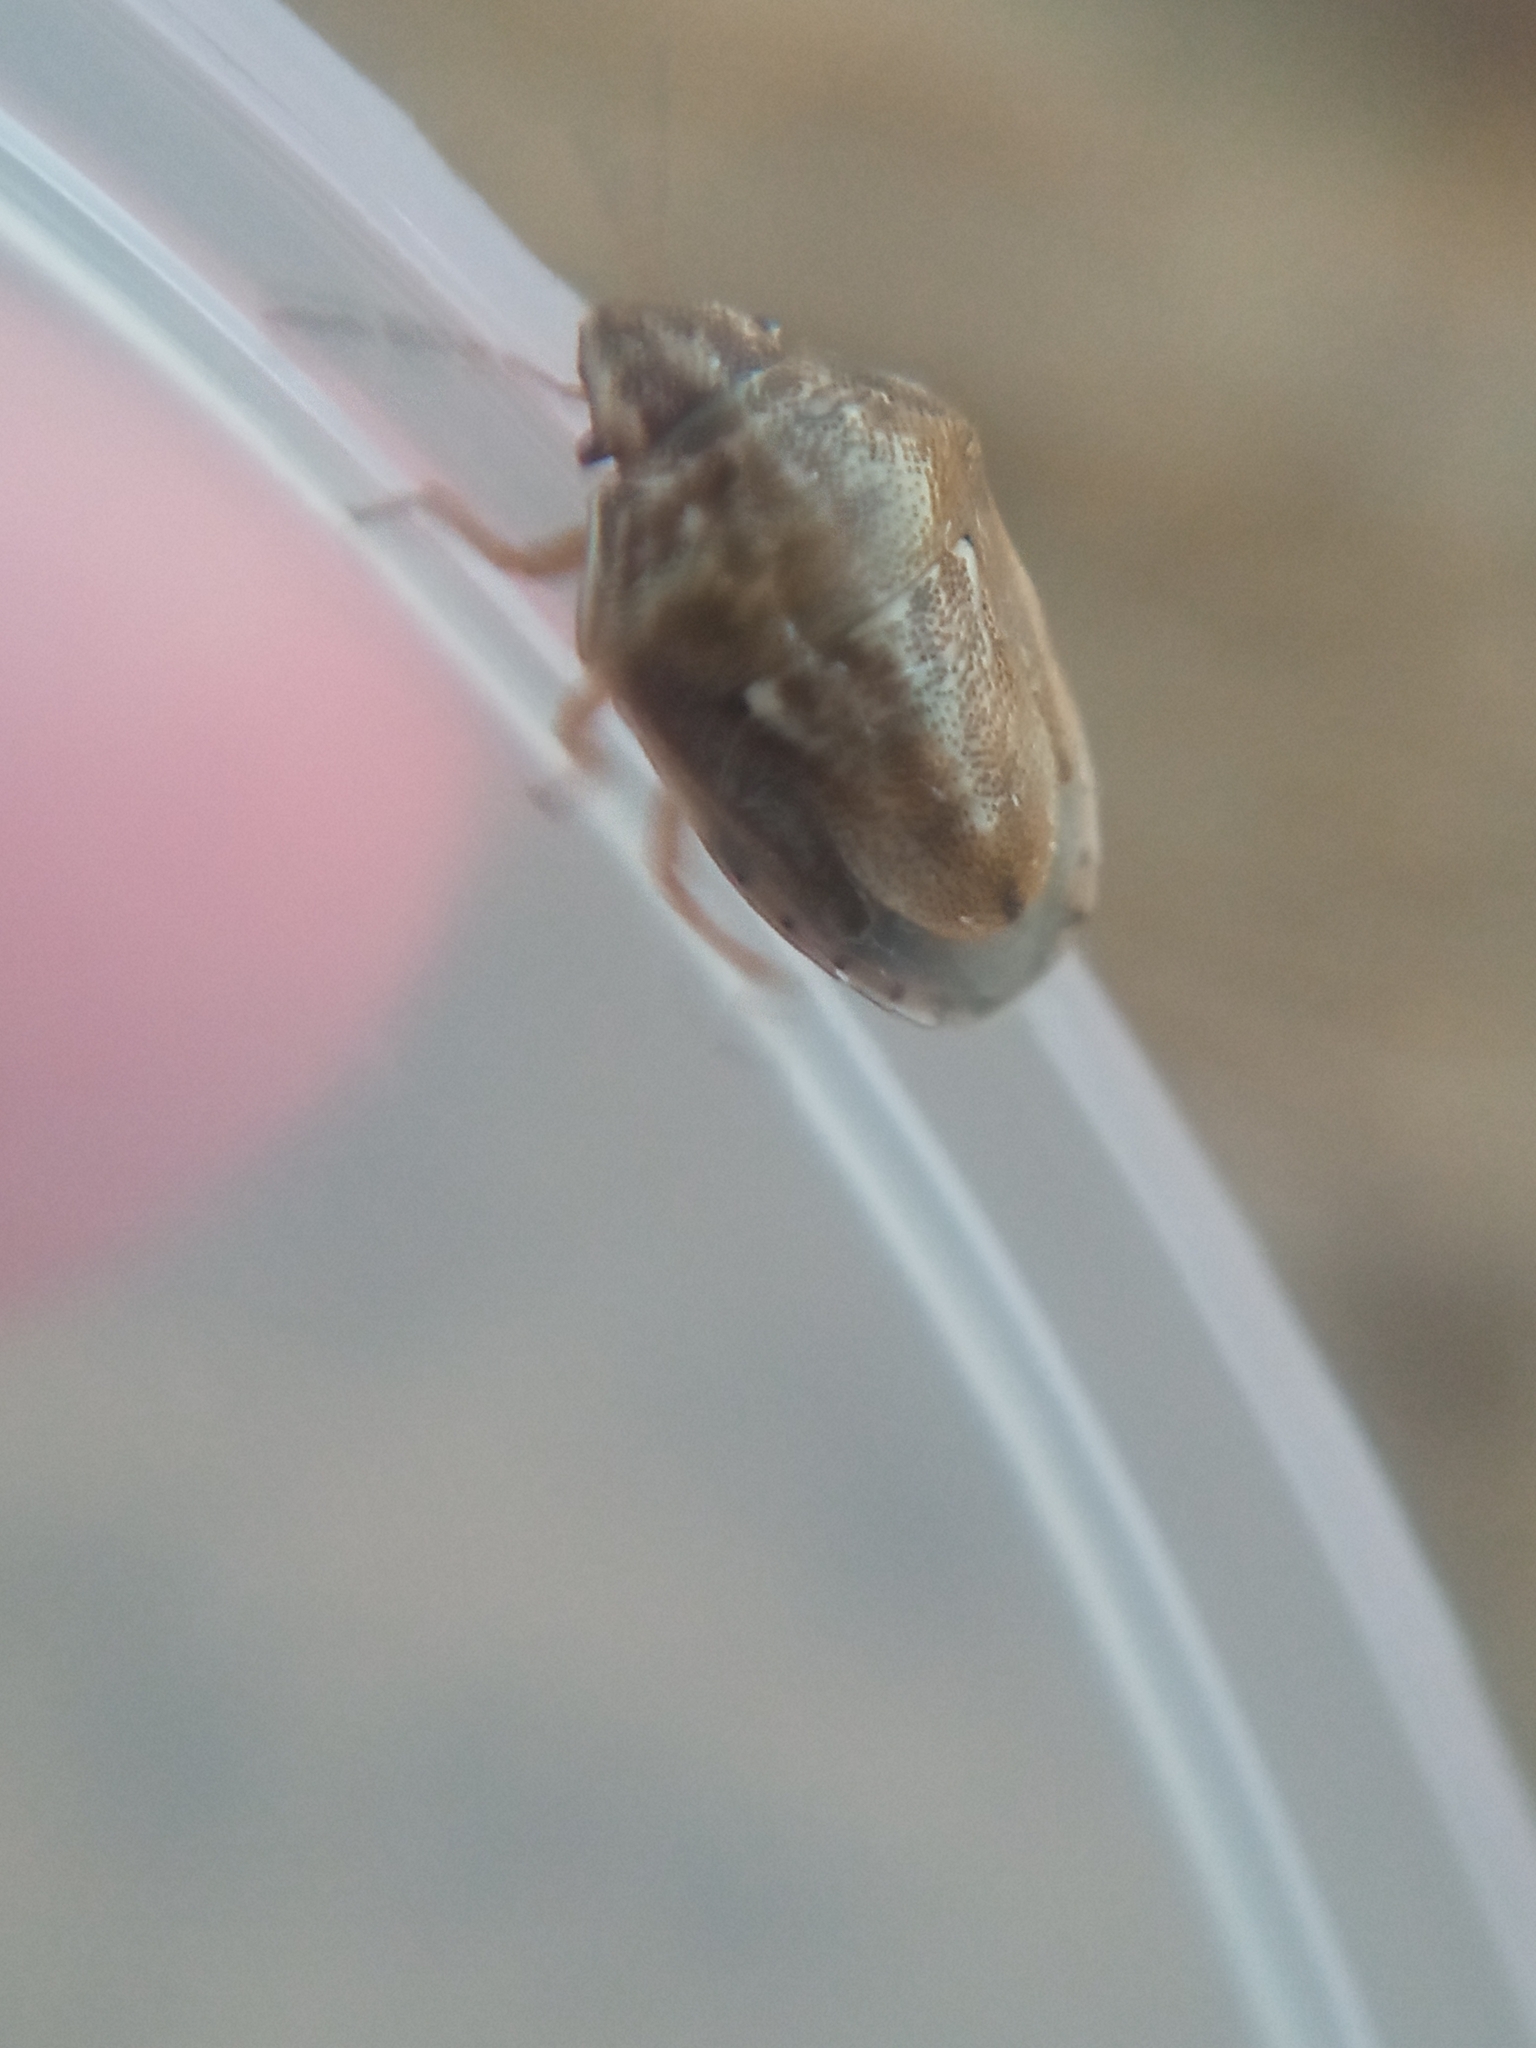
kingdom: Animalia
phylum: Arthropoda
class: Insecta
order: Hemiptera
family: Pentatomidae
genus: Neottiglossa
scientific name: Neottiglossa leporina
